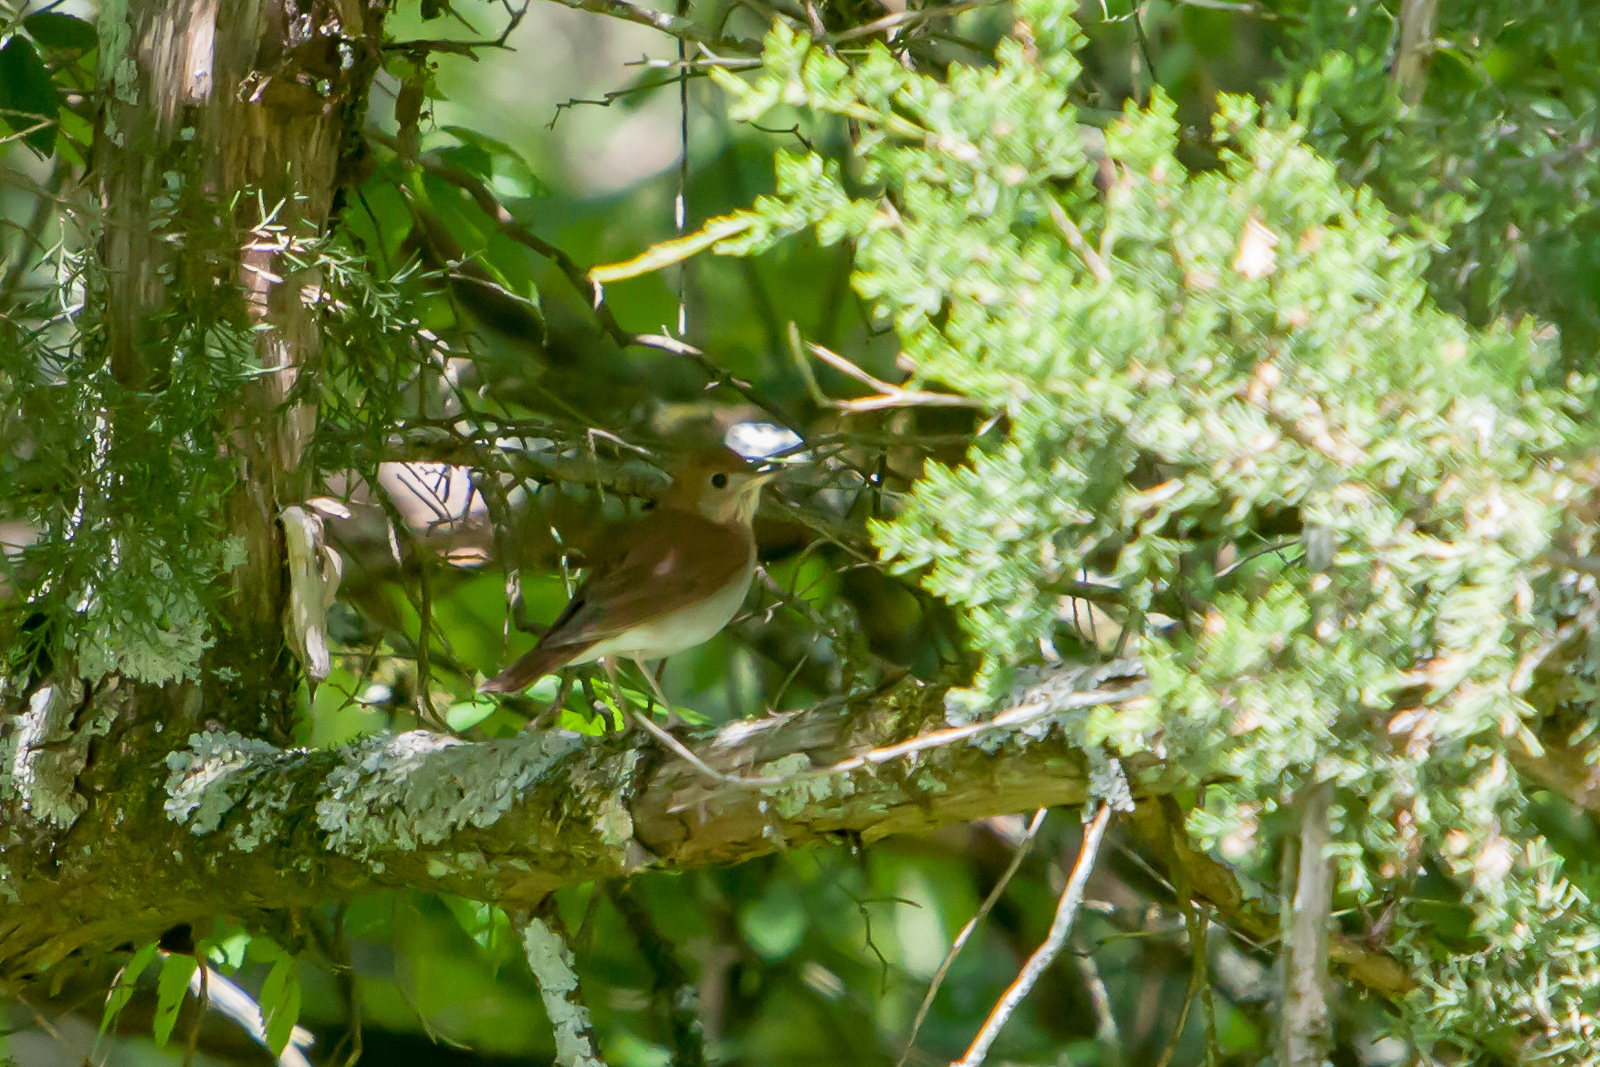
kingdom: Animalia
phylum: Chordata
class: Aves
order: Passeriformes
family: Turdidae
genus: Catharus
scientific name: Catharus fuscescens
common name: Veery
